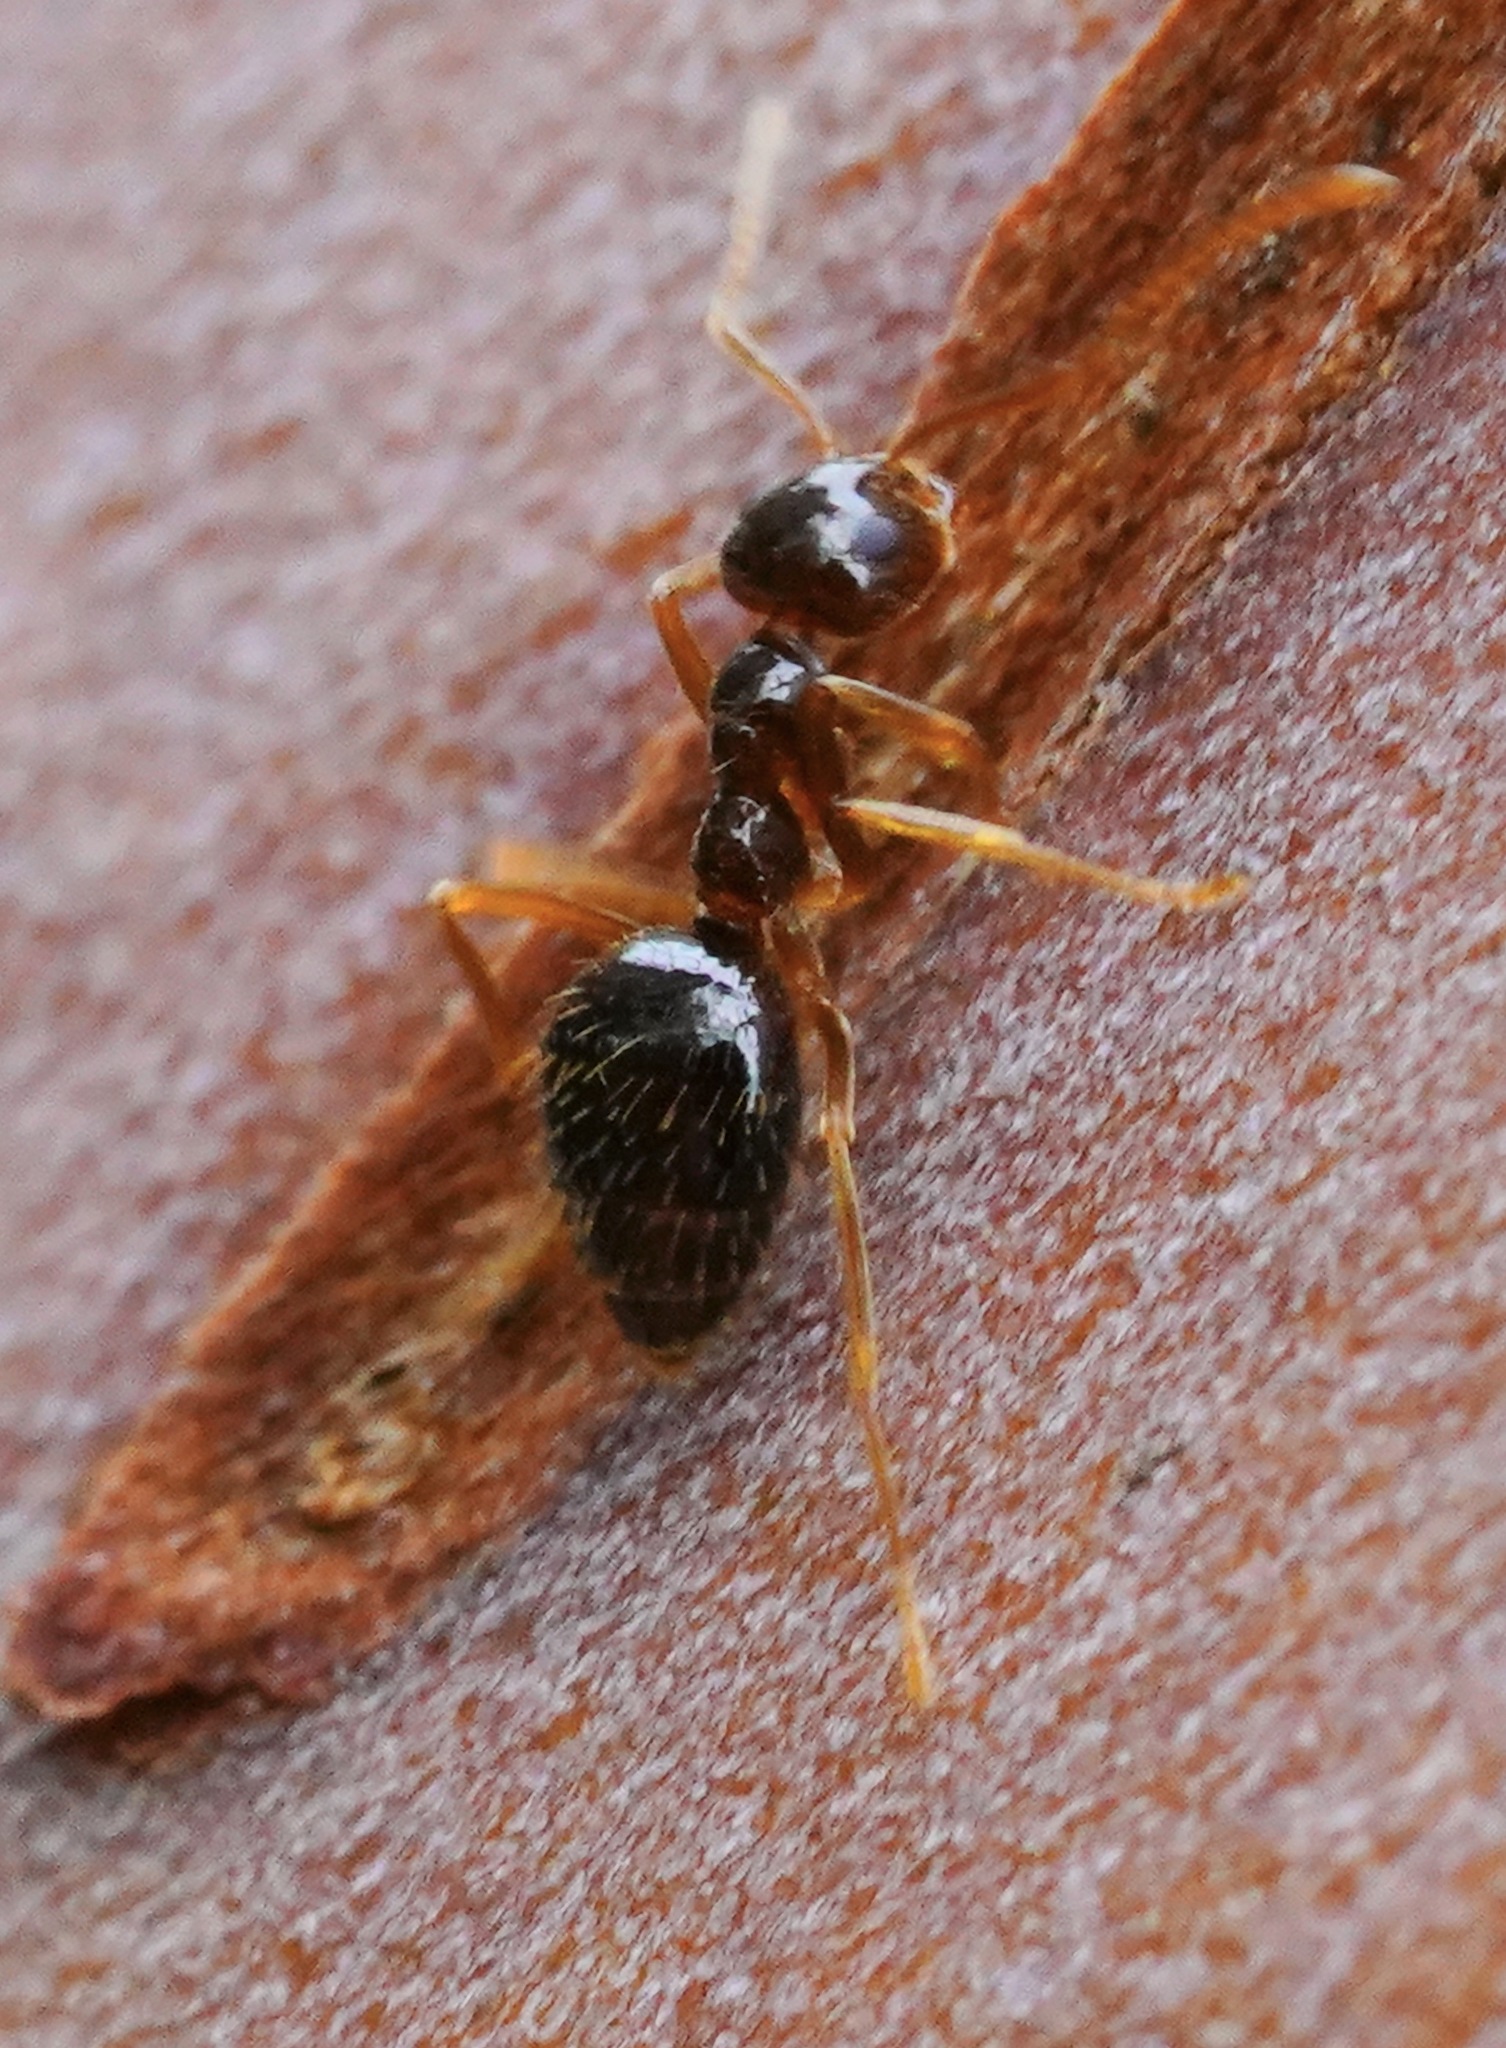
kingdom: Animalia
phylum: Arthropoda
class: Insecta
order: Hymenoptera
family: Formicidae
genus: Prenolepis
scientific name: Prenolepis imparis
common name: Small honey ant
